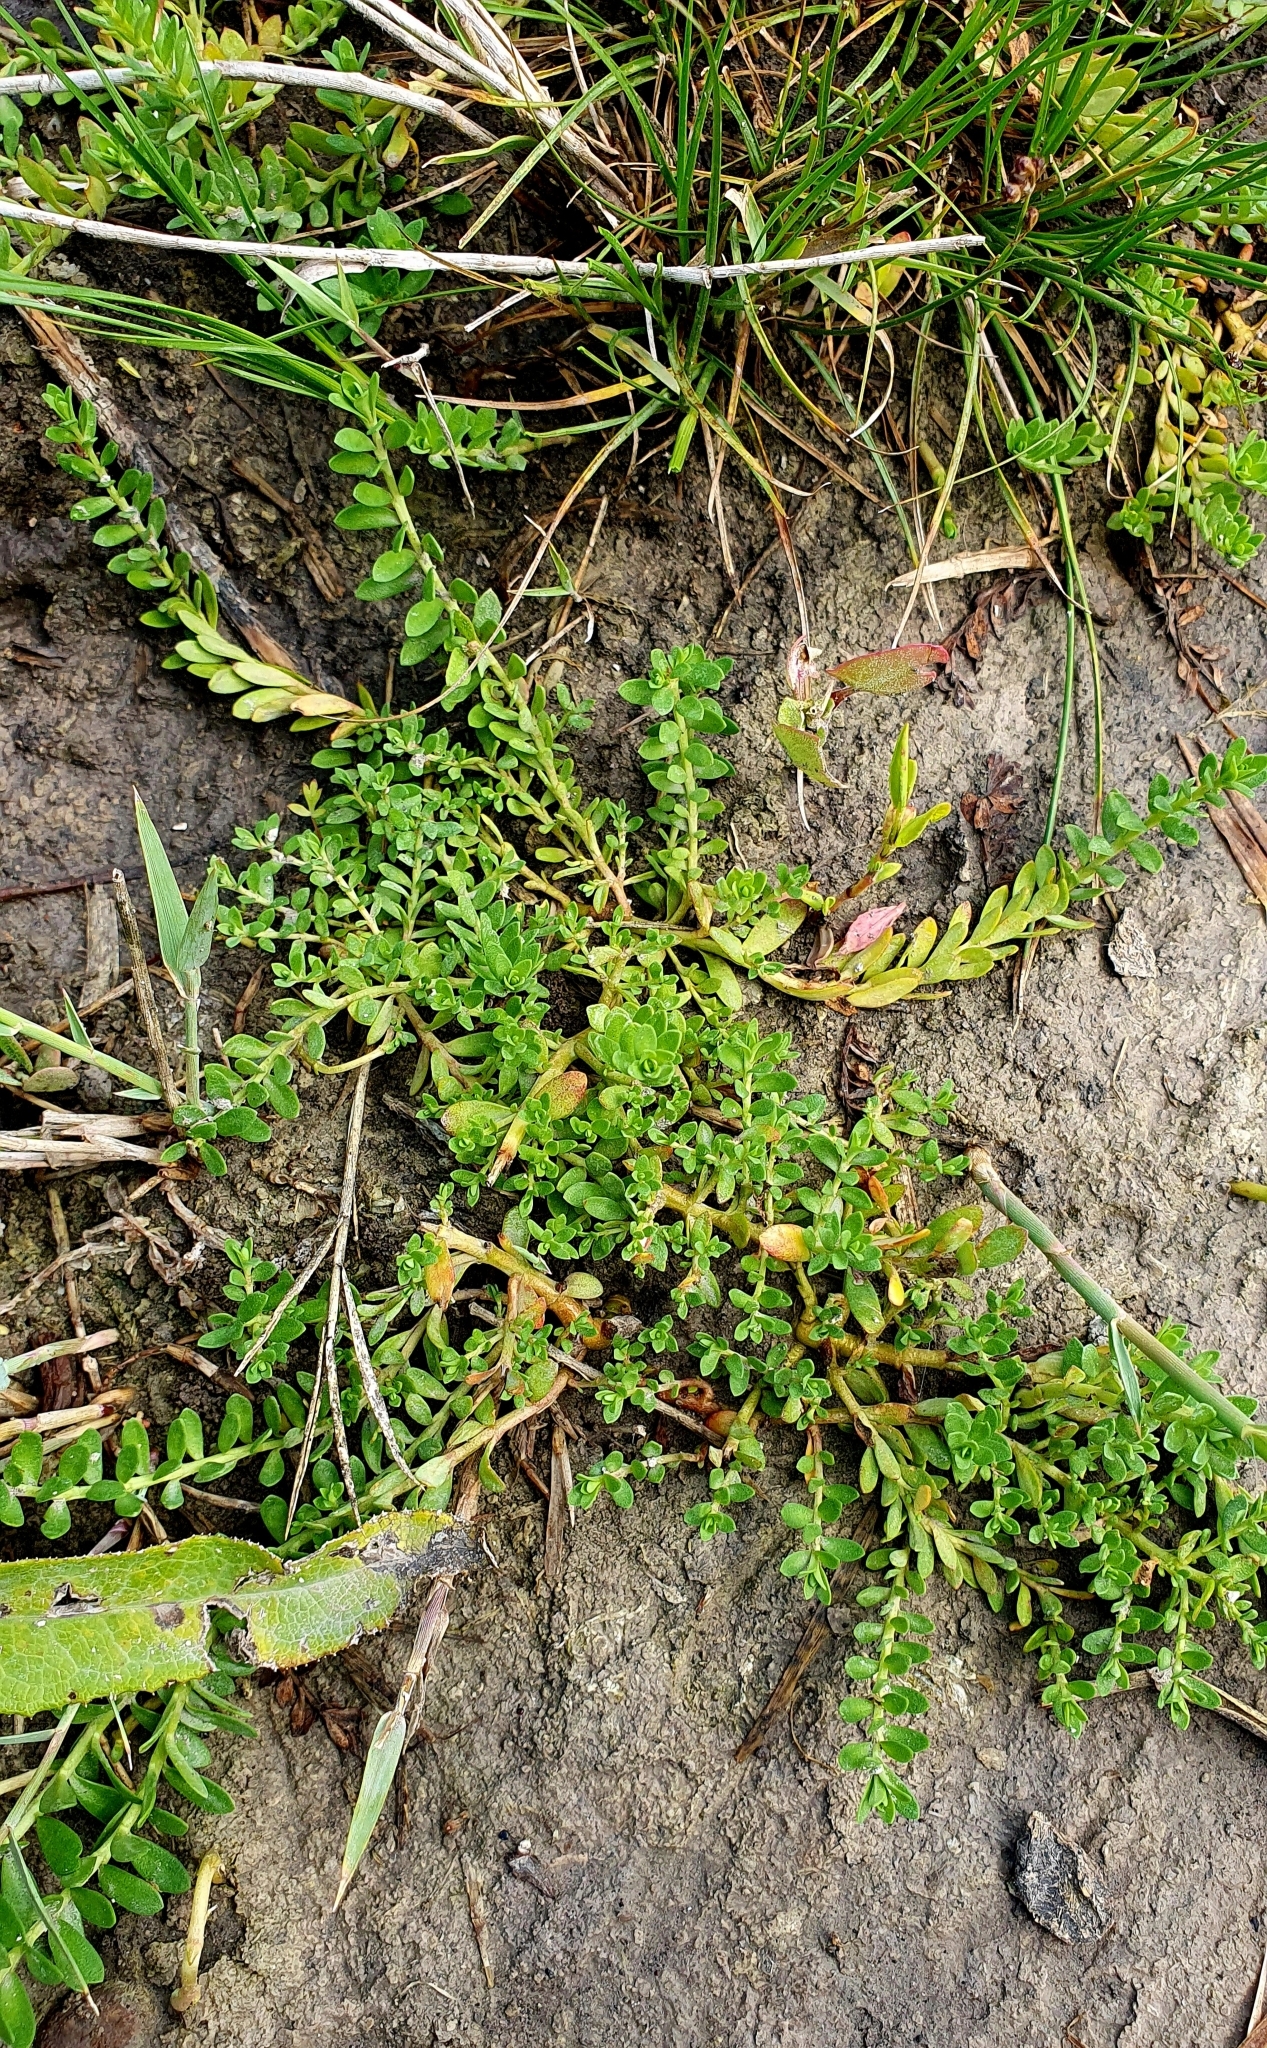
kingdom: Plantae
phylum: Tracheophyta
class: Magnoliopsida
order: Ericales
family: Primulaceae
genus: Lysimachia
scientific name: Lysimachia maritima
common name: Sea milkwort
